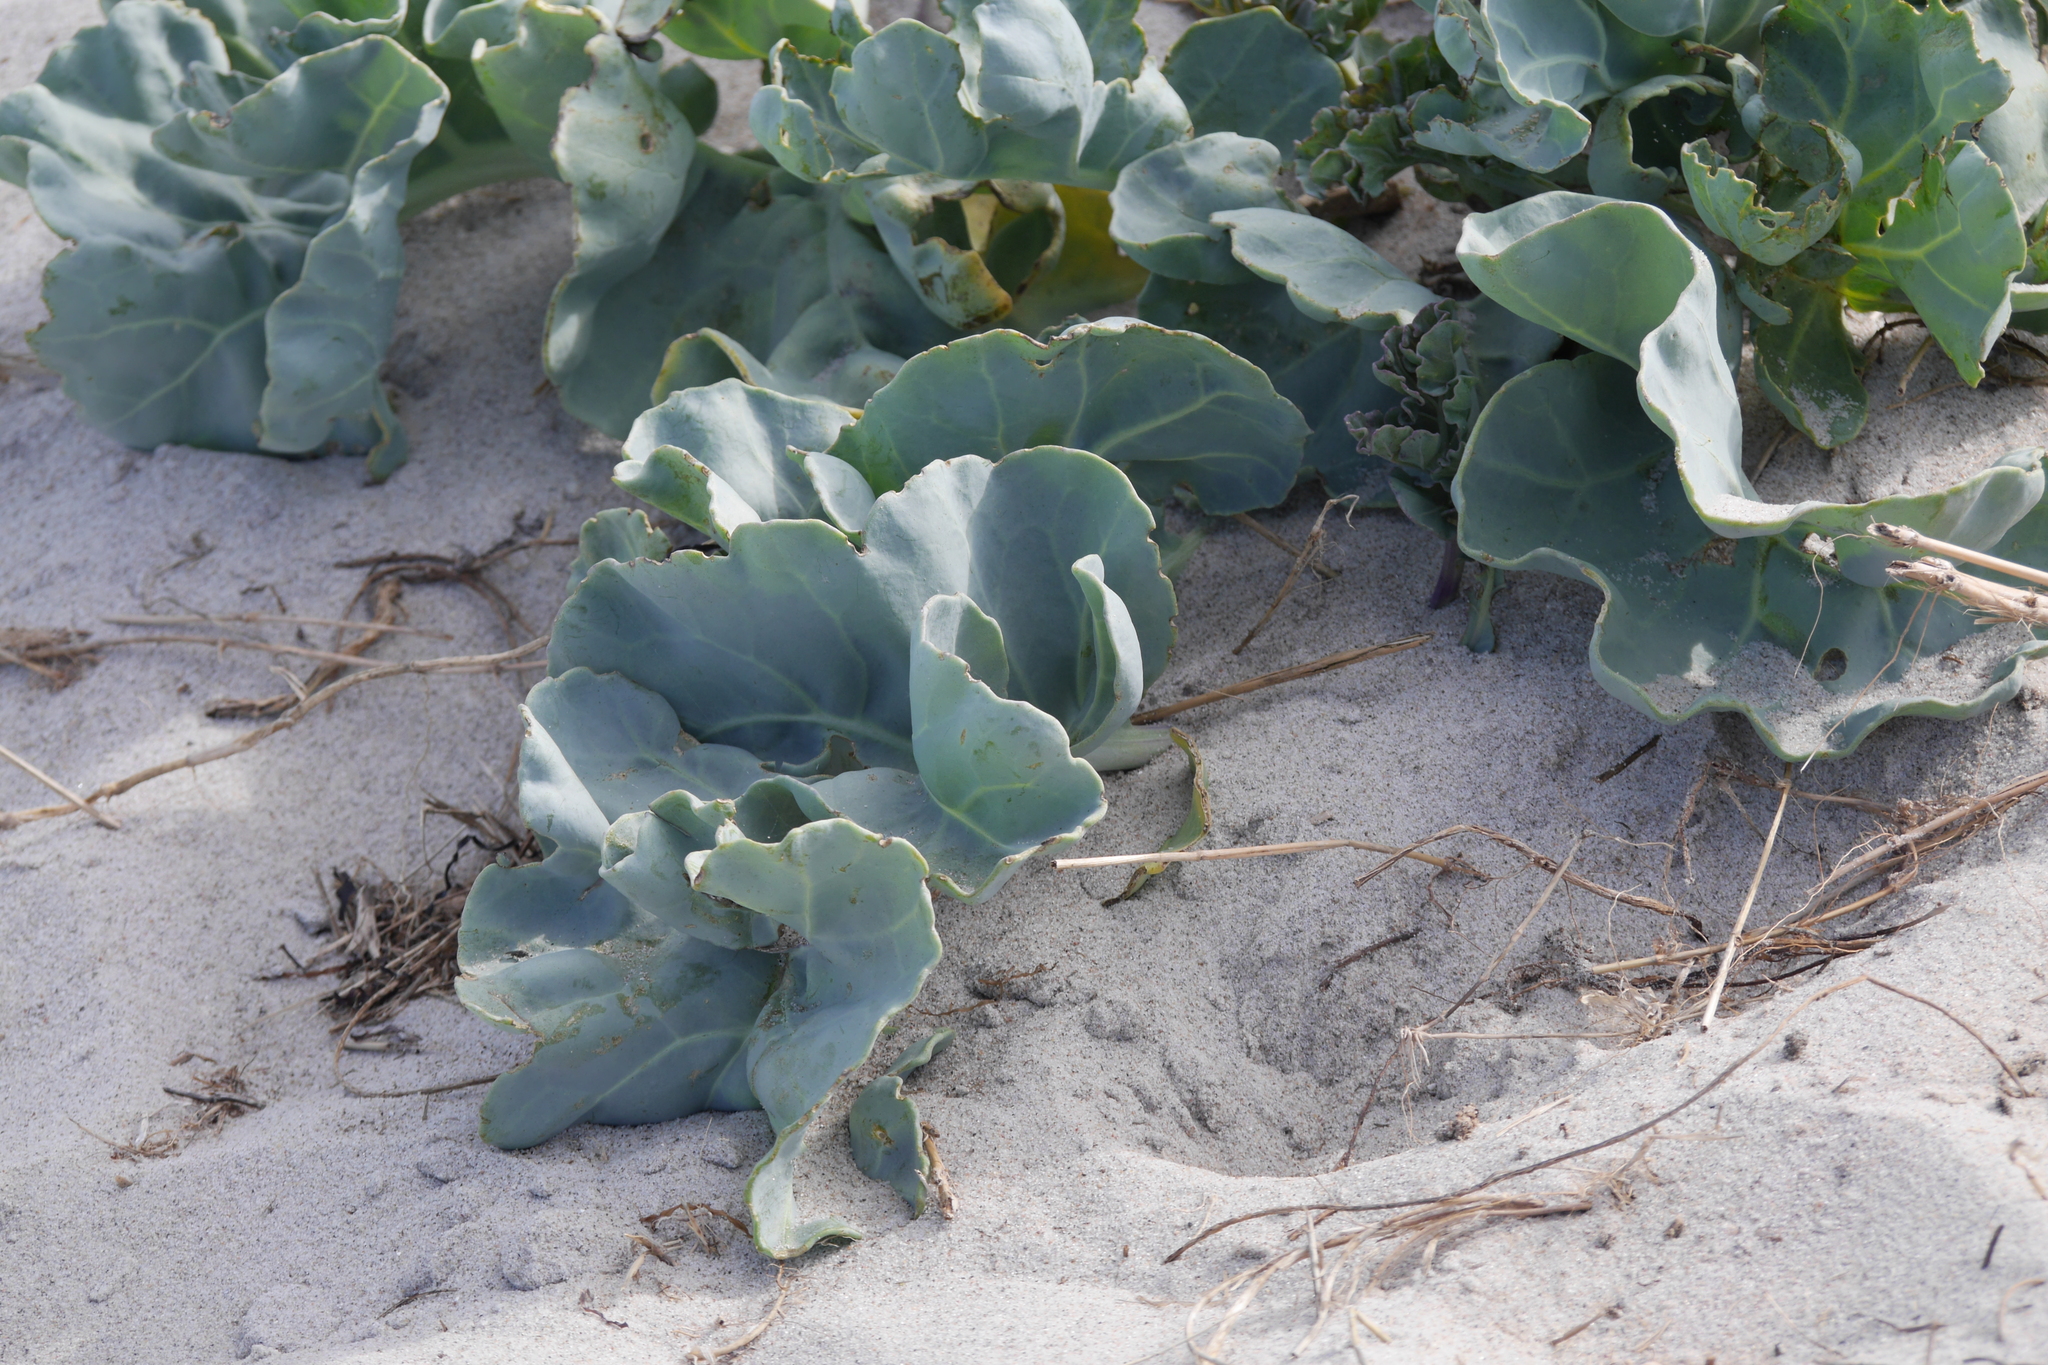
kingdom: Plantae
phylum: Tracheophyta
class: Magnoliopsida
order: Brassicales
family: Brassicaceae
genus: Crambe
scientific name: Crambe maritima
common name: Sea-kale
